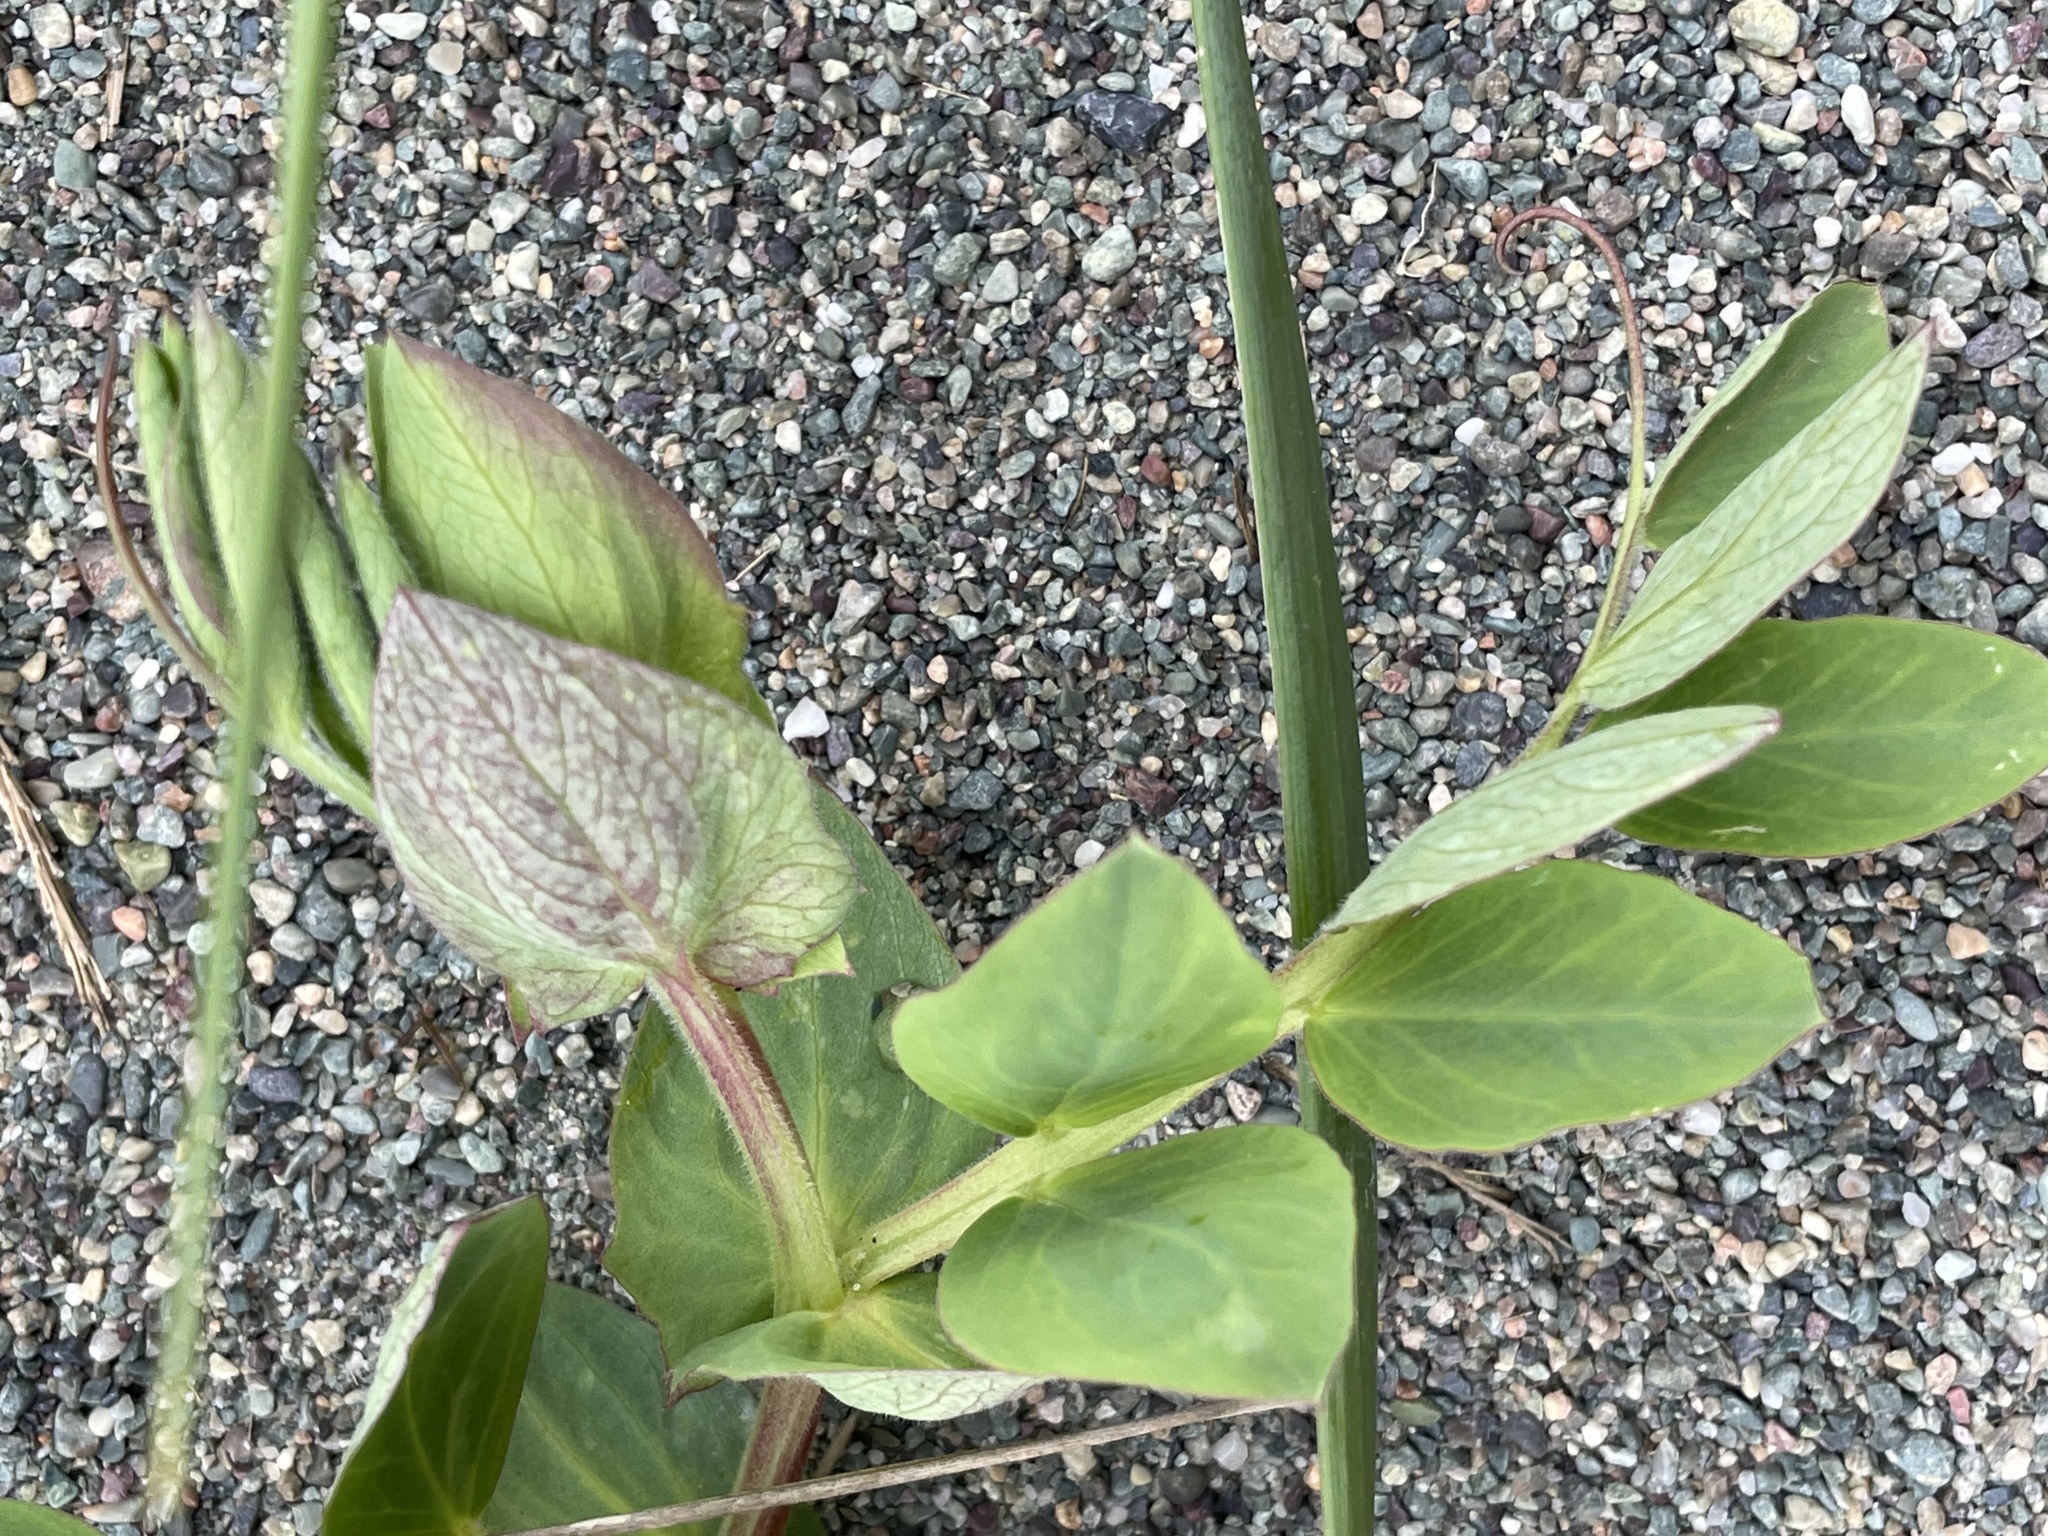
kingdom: Plantae
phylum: Tracheophyta
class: Magnoliopsida
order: Fabales
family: Fabaceae
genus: Lathyrus
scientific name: Lathyrus japonicus
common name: Sea pea
